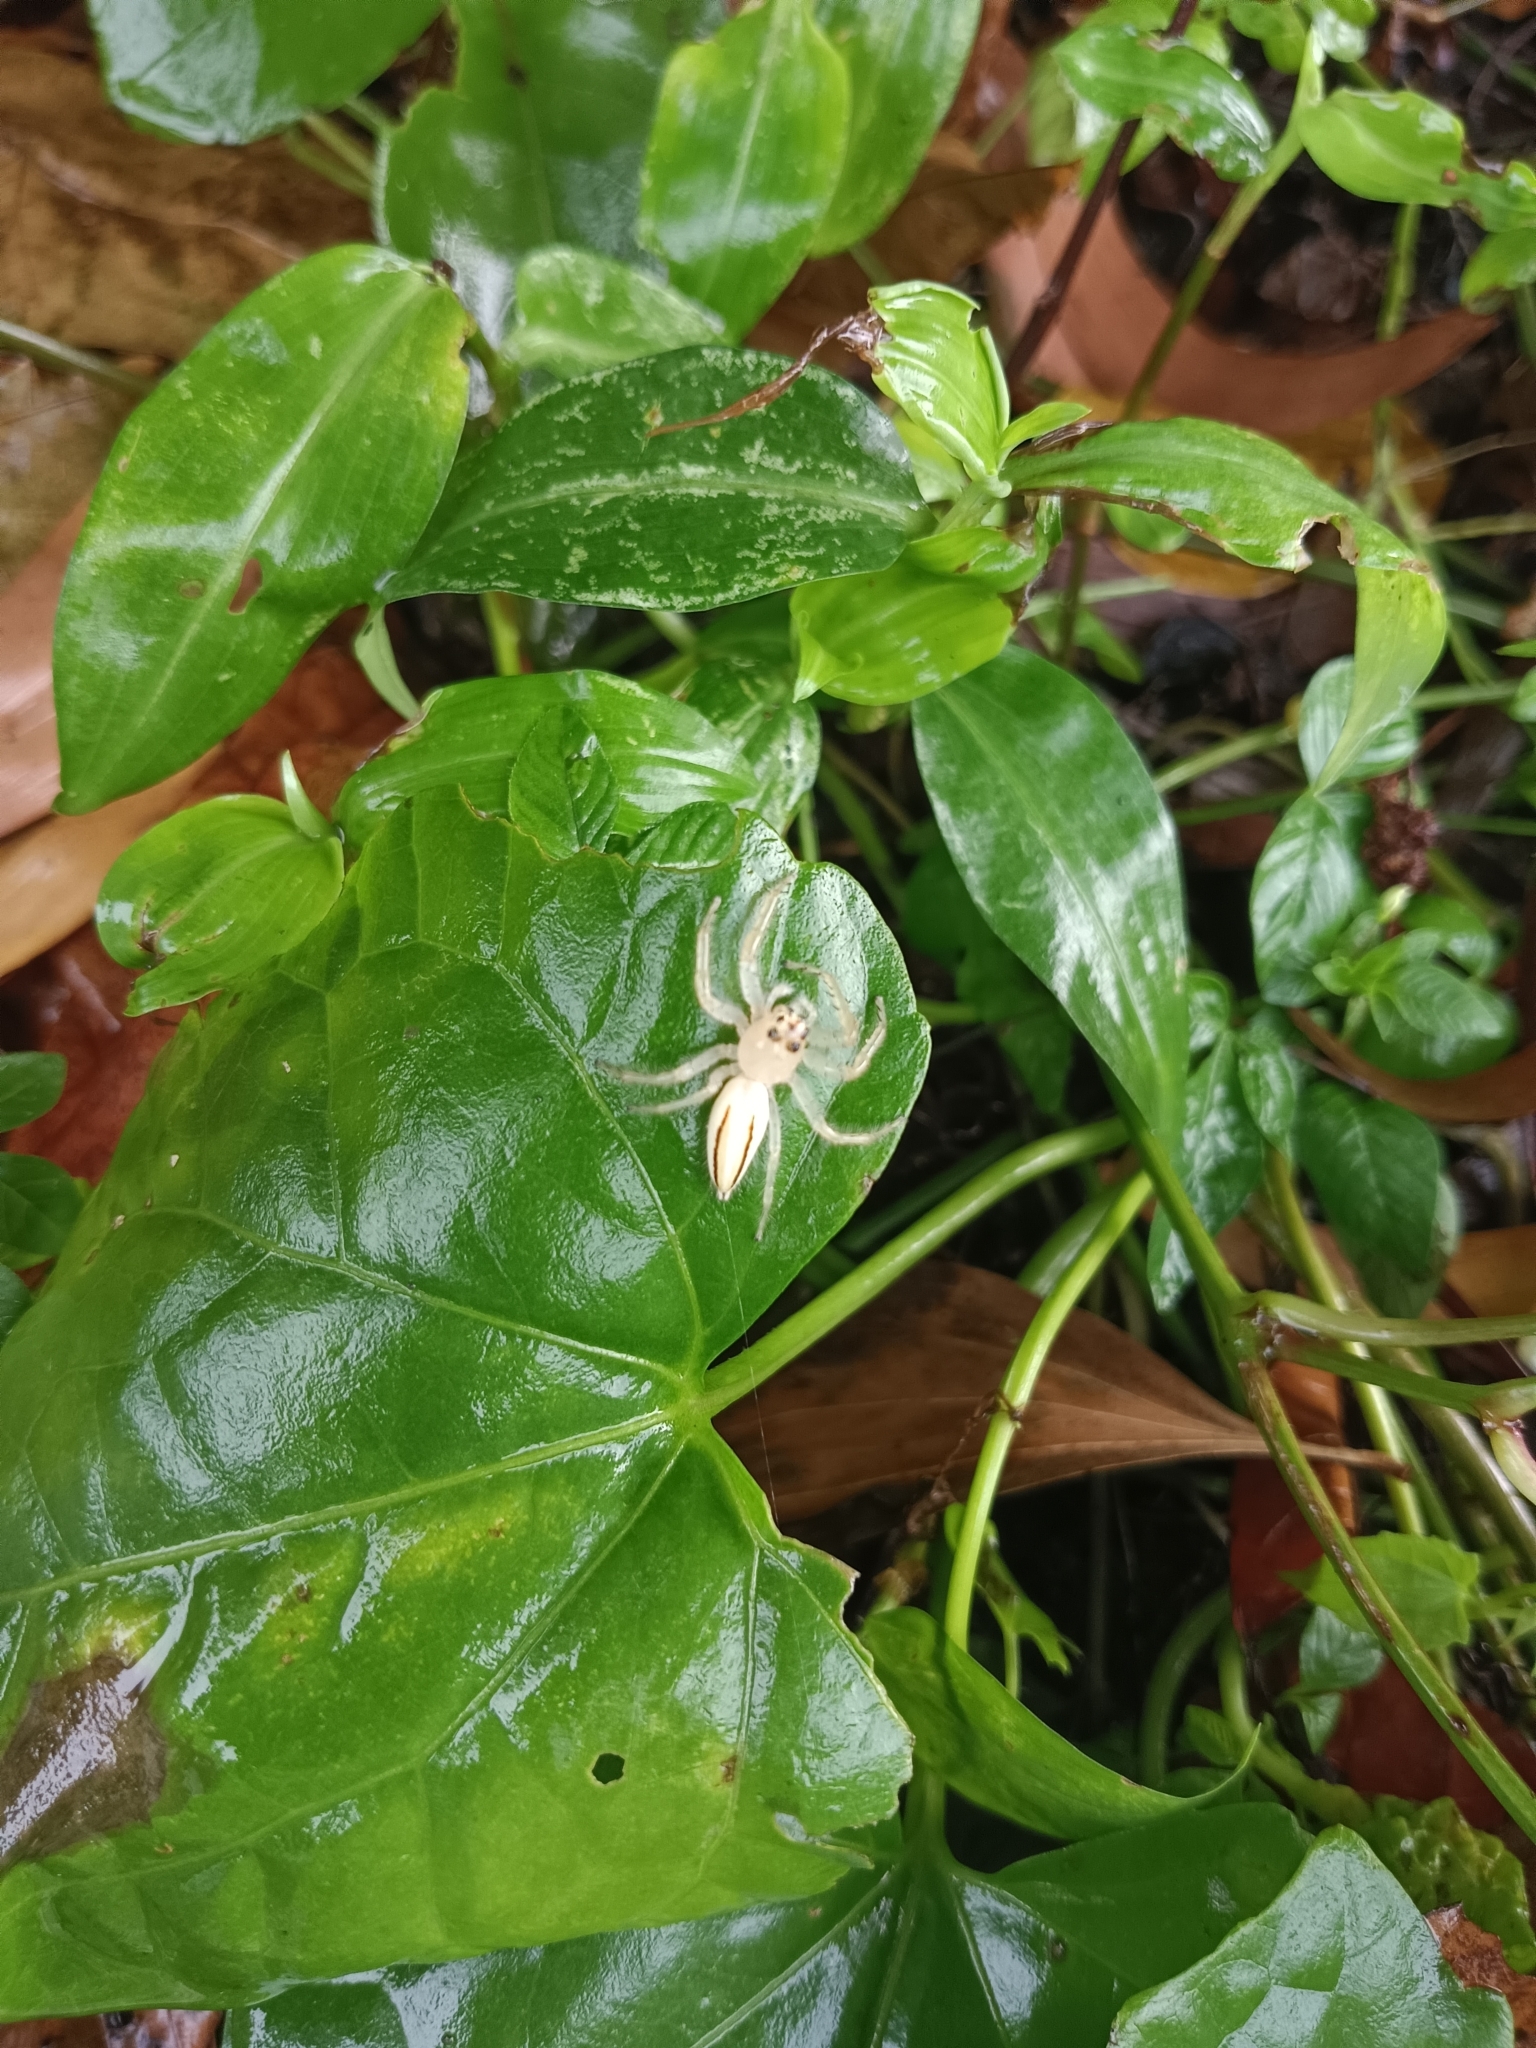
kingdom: Animalia
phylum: Arthropoda
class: Arachnida
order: Araneae
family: Salticidae
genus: Telamonia
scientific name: Telamonia dimidiata
